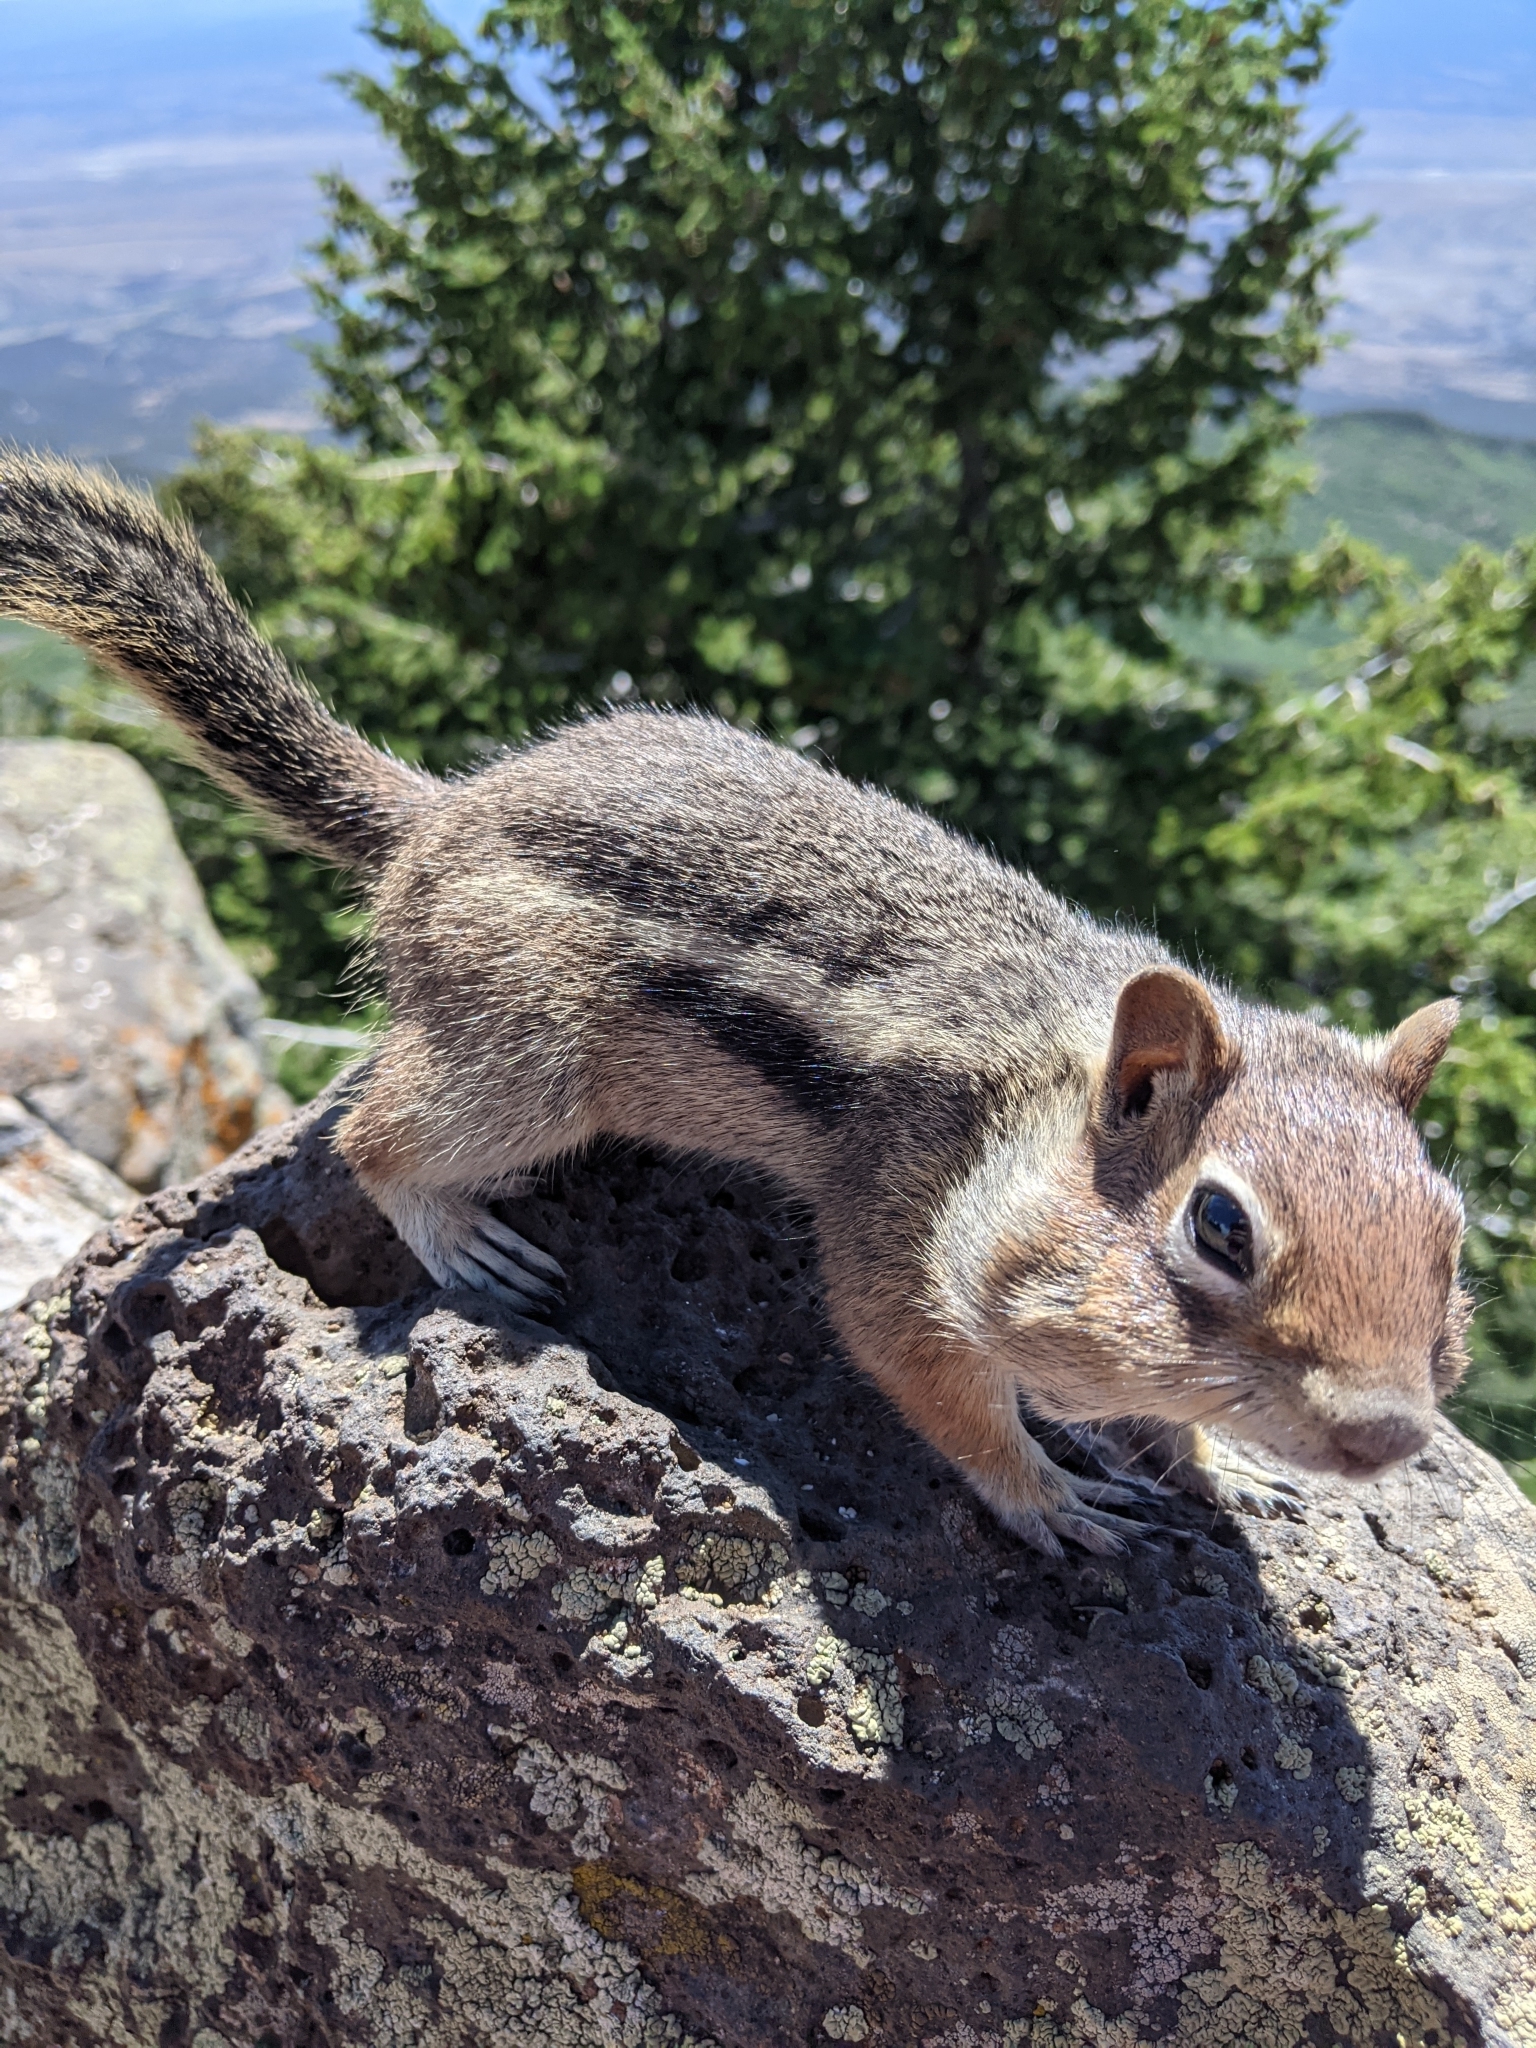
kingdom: Animalia
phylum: Chordata
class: Mammalia
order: Rodentia
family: Sciuridae
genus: Callospermophilus
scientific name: Callospermophilus lateralis
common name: Golden-mantled ground squirrel
